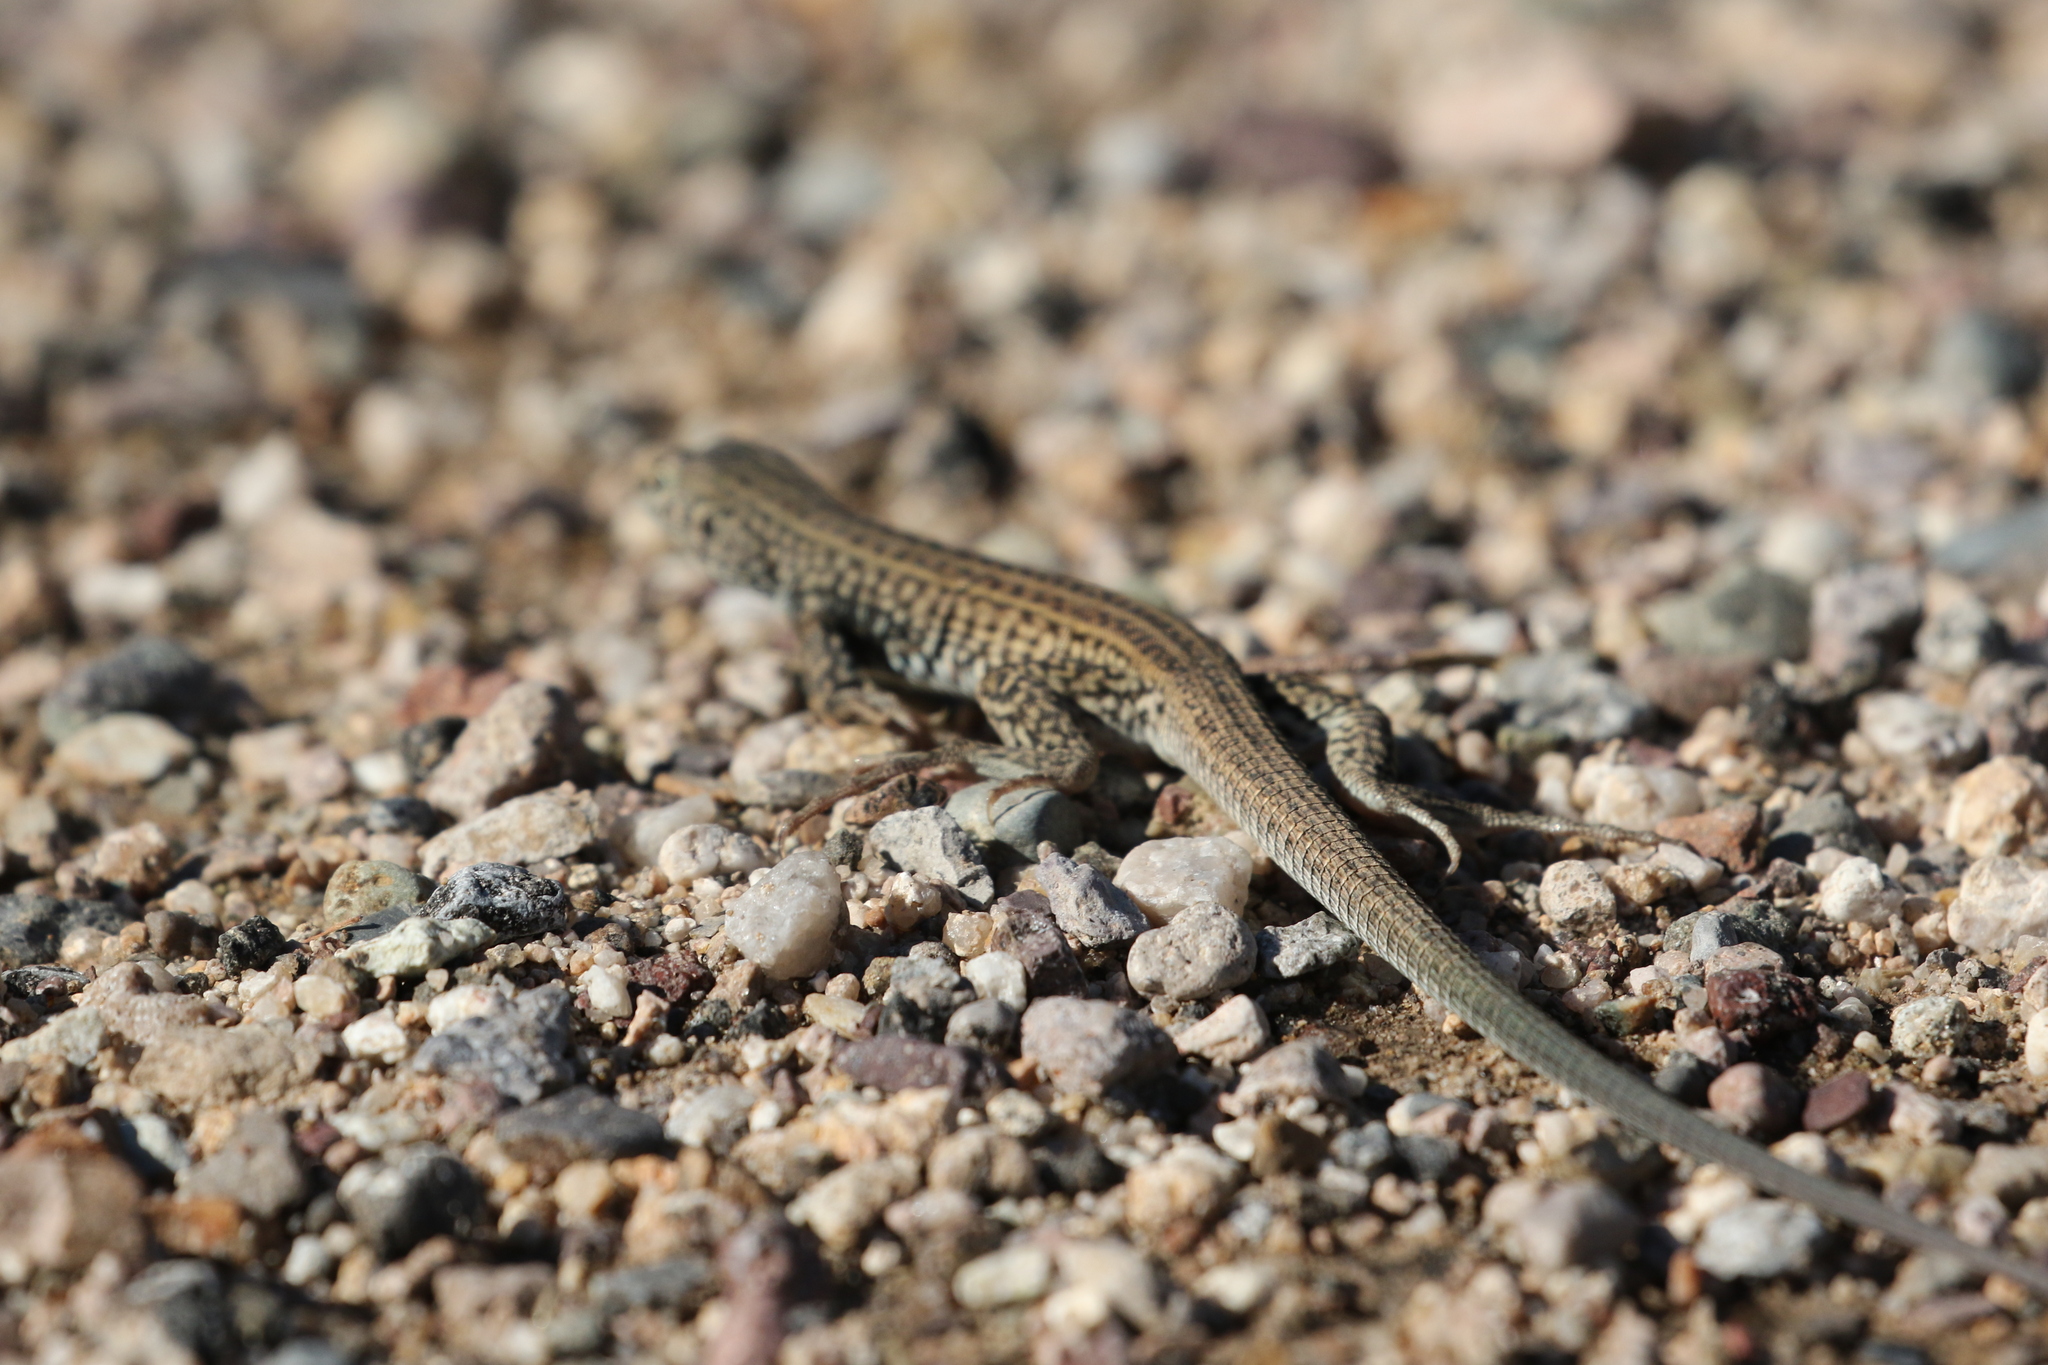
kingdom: Animalia
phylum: Chordata
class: Squamata
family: Teiidae
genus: Aspidoscelis
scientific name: Aspidoscelis tigris
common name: Tiger whiptail
